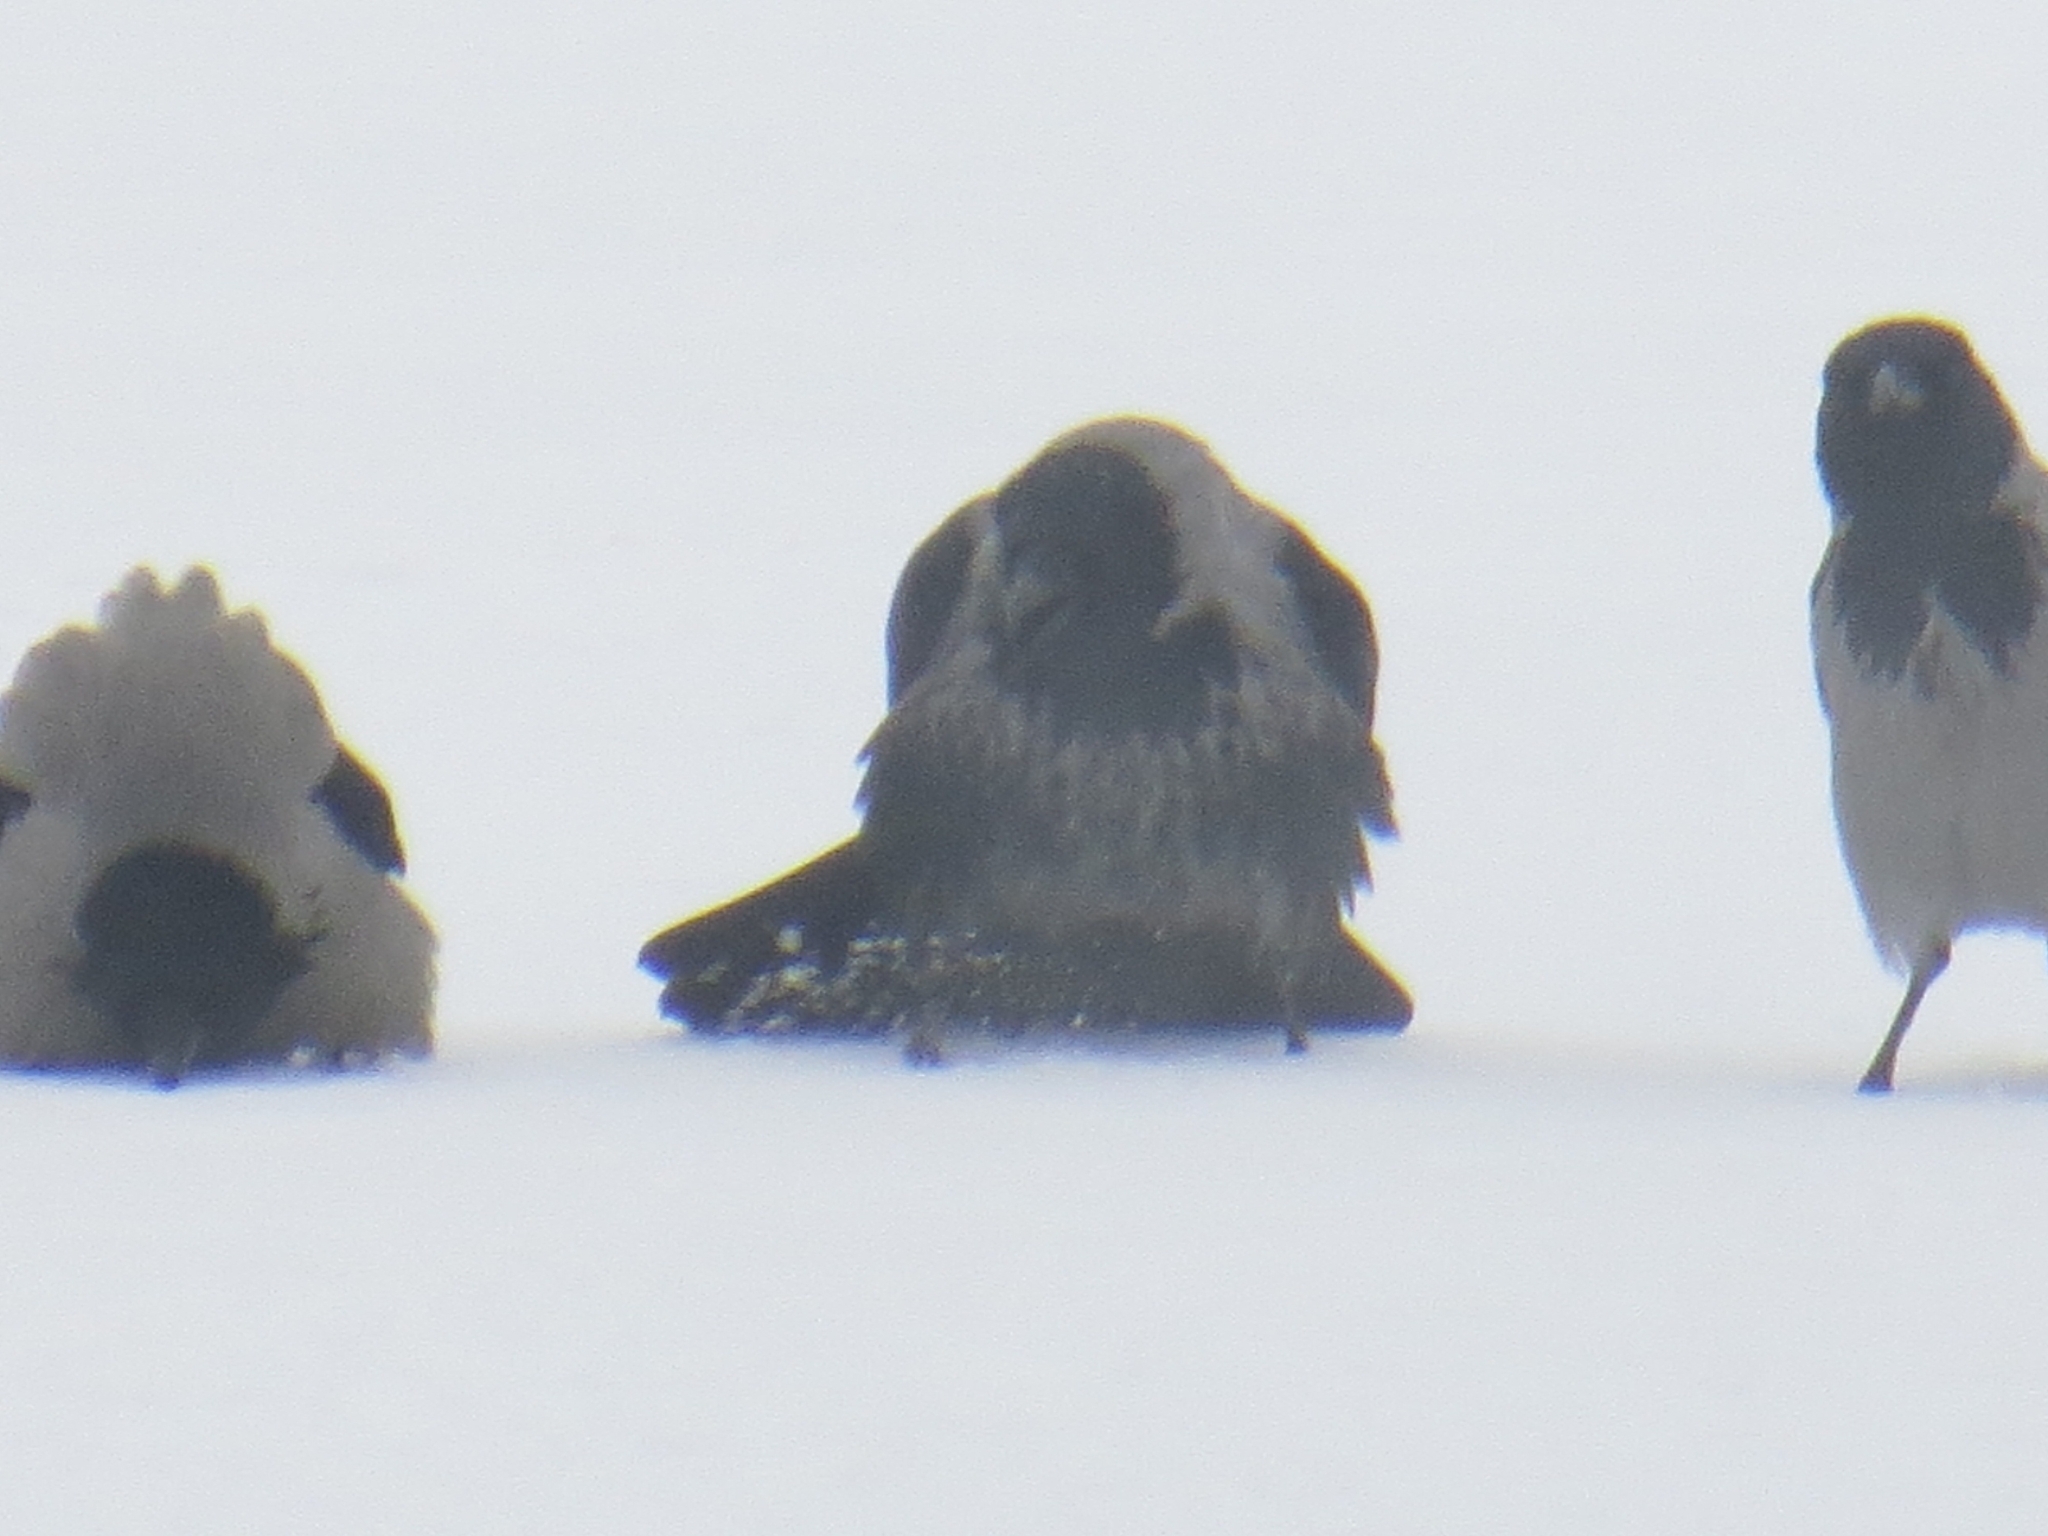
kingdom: Animalia
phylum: Chordata
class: Aves
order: Passeriformes
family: Corvidae
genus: Corvus
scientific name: Corvus
